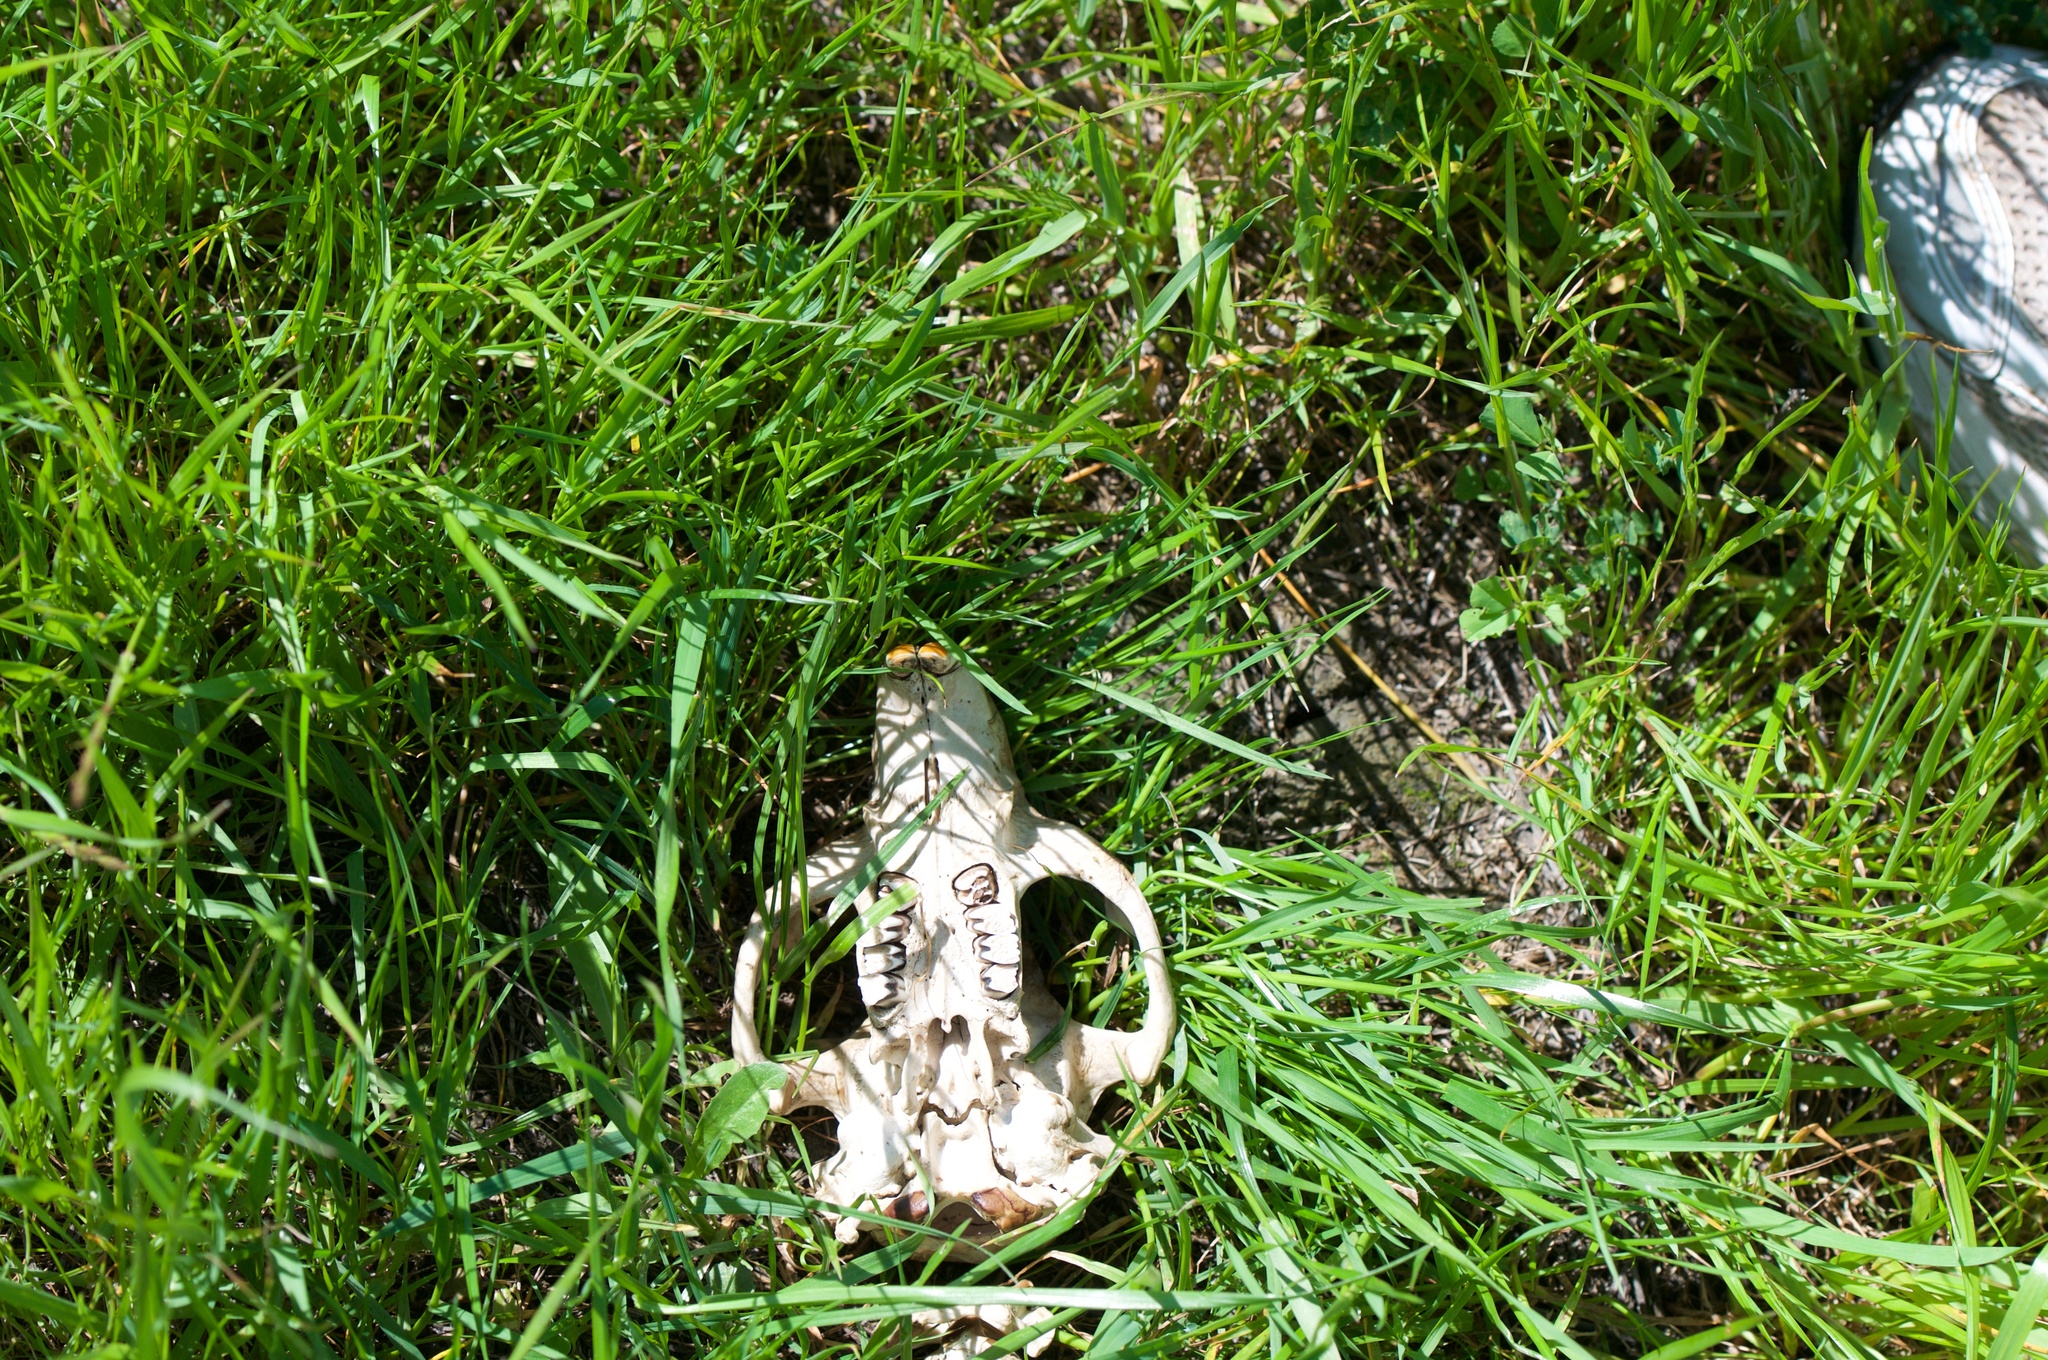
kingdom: Animalia
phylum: Chordata
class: Mammalia
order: Rodentia
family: Castoridae
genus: Castor
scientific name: Castor canadensis
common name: American beaver
